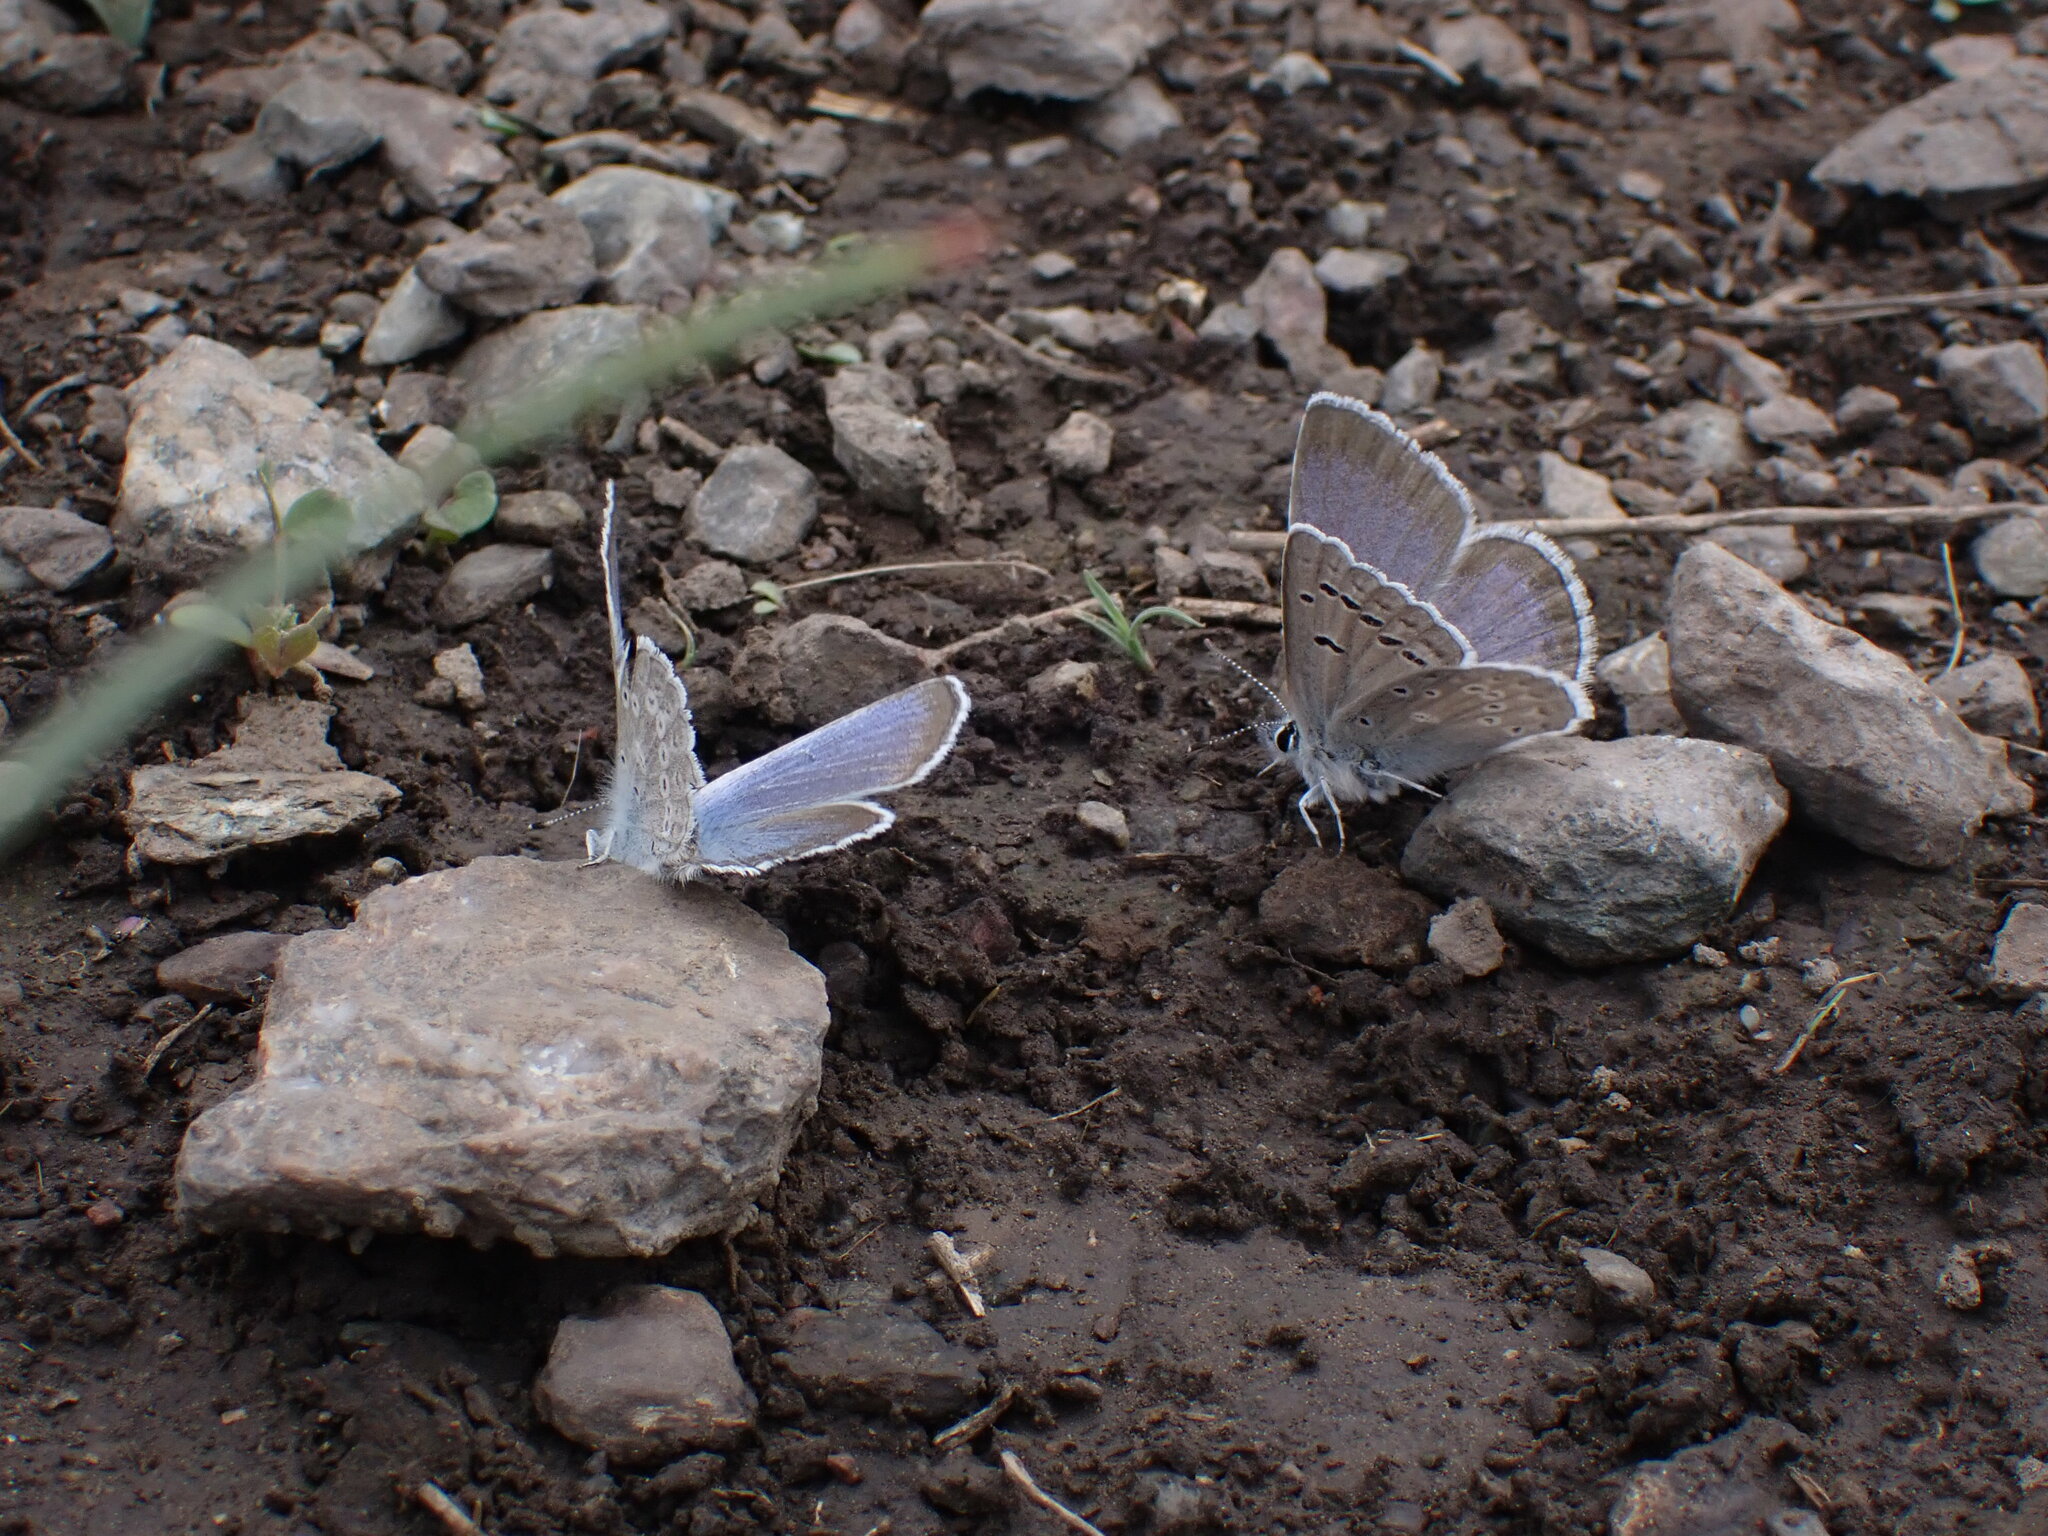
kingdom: Animalia
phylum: Arthropoda
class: Insecta
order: Lepidoptera
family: Lycaenidae
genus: Icaricia
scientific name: Icaricia icarioides
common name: Boisduval's blue
